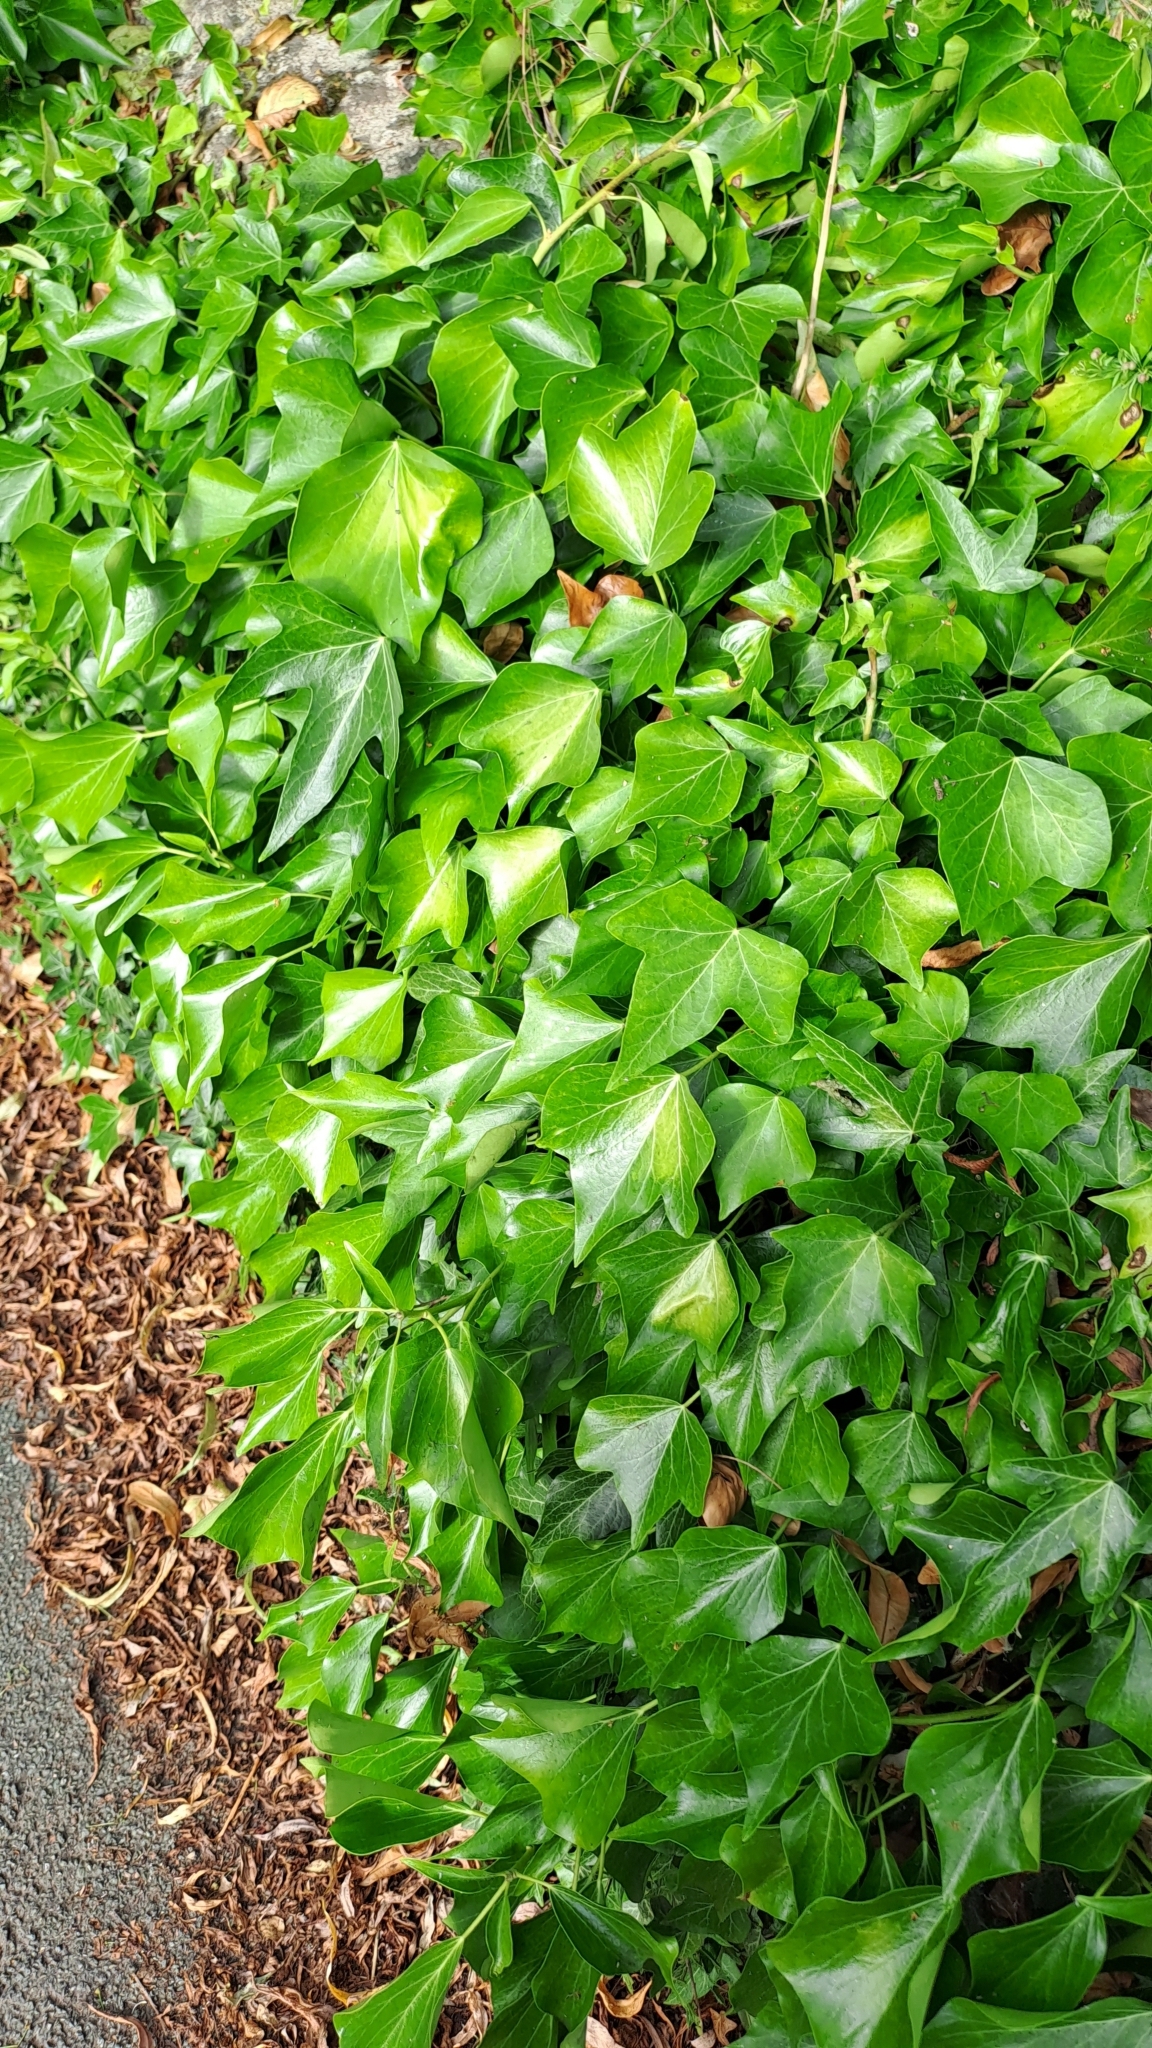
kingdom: Plantae
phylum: Tracheophyta
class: Magnoliopsida
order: Apiales
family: Araliaceae
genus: Hedera
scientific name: Hedera helix
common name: Ivy
